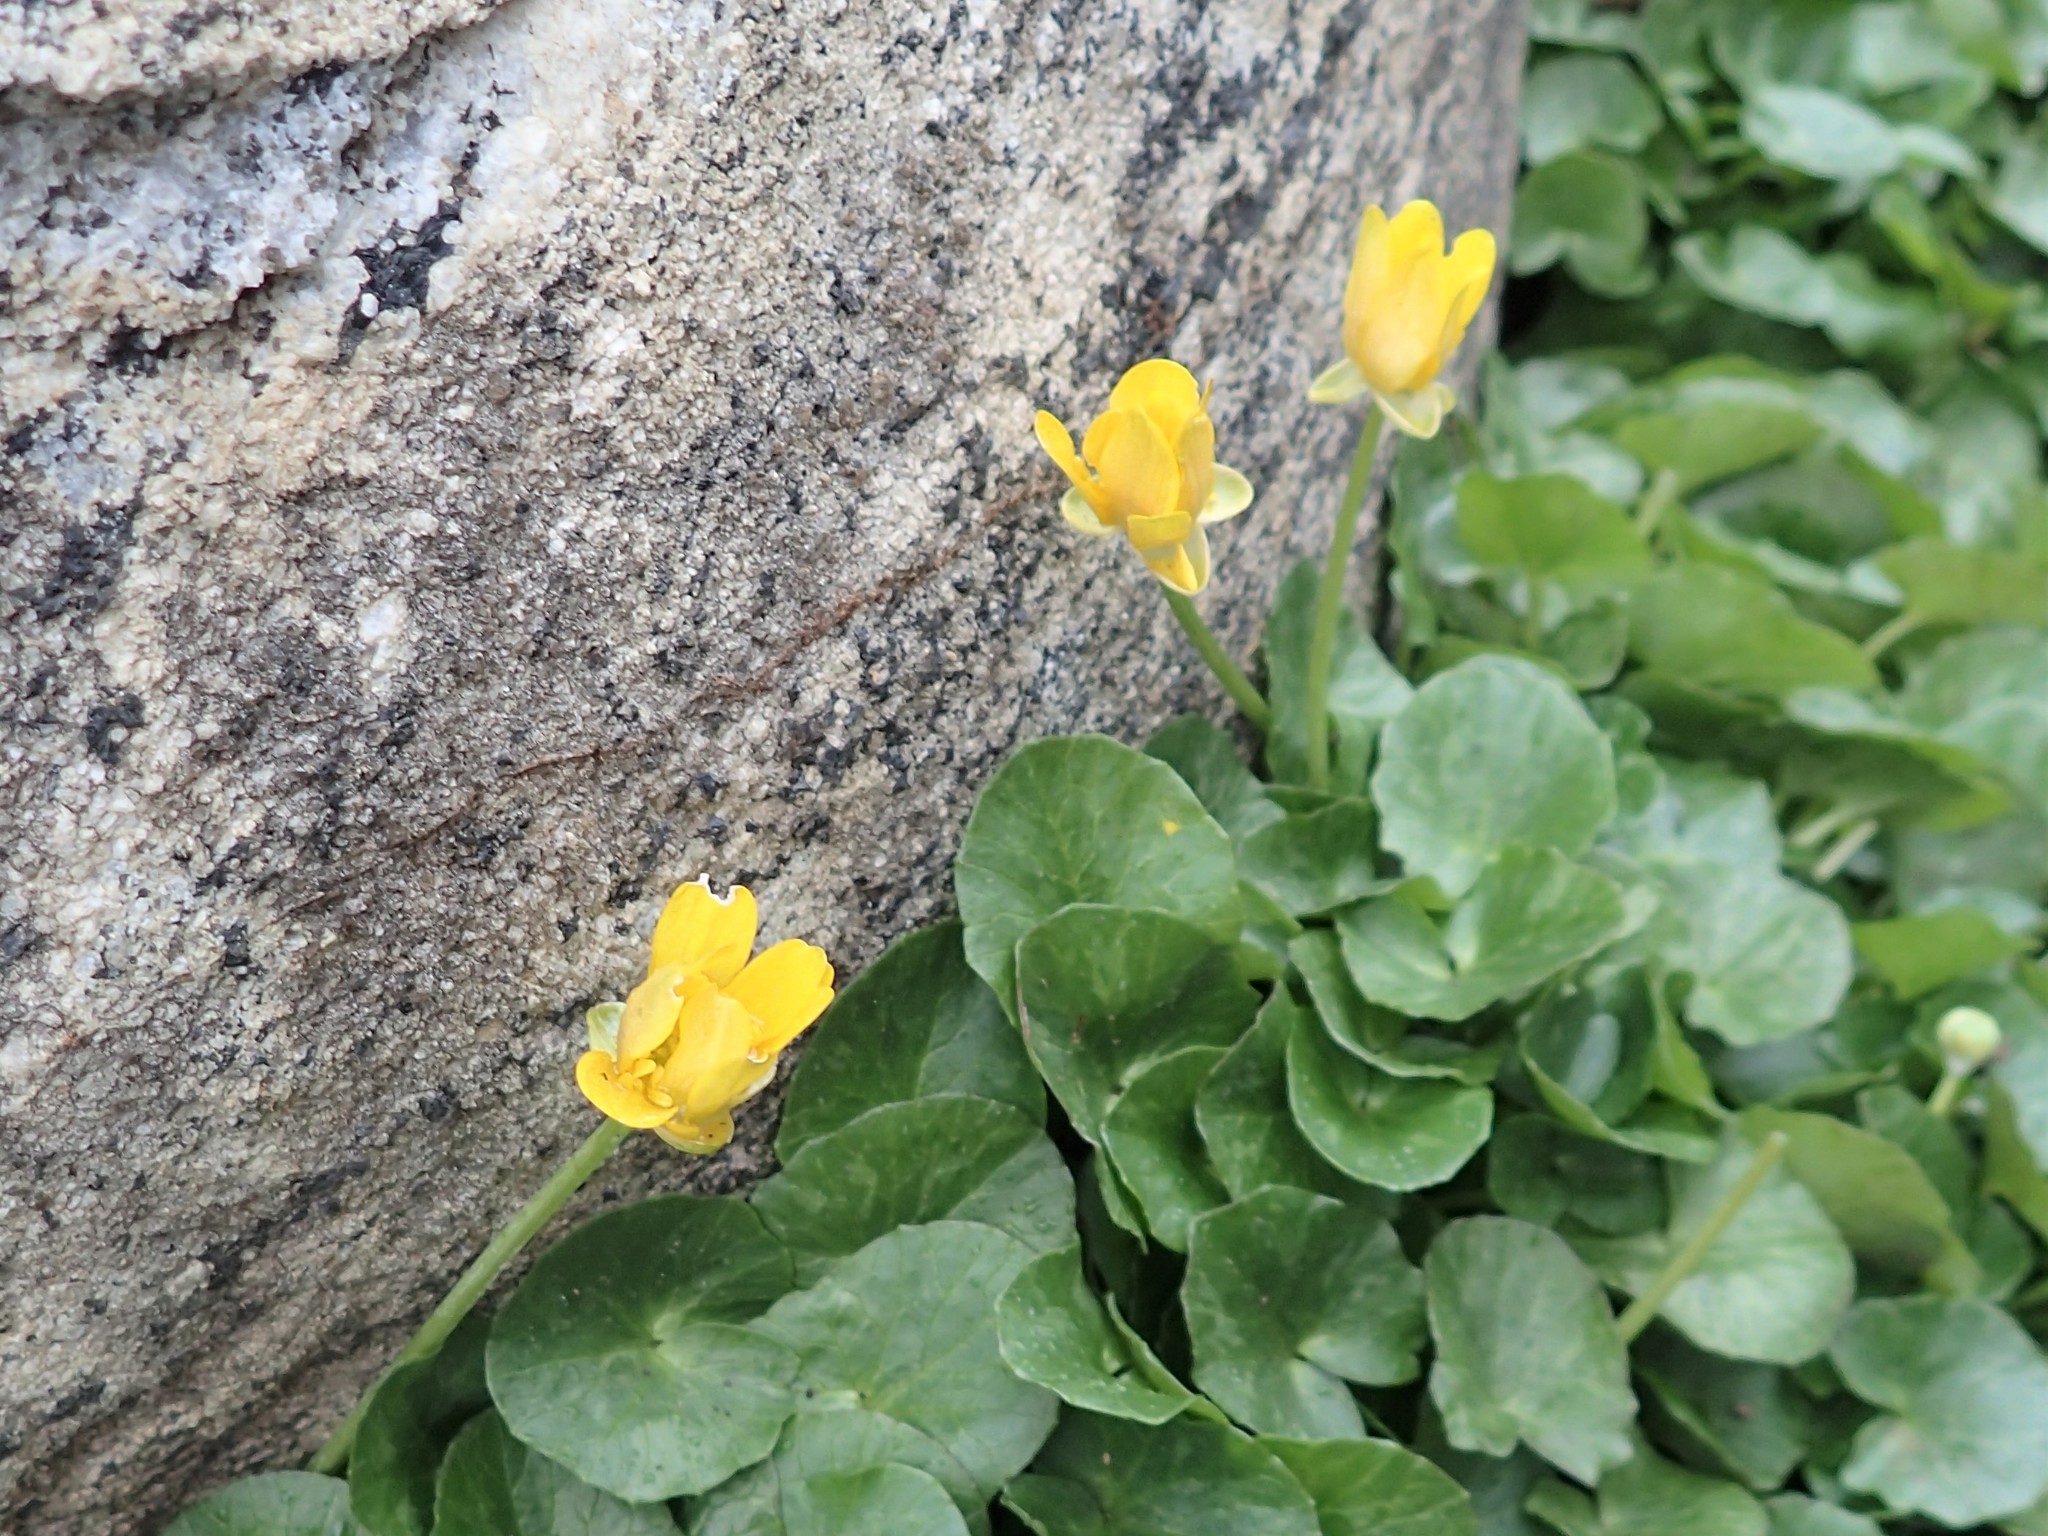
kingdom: Plantae
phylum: Tracheophyta
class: Magnoliopsida
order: Ranunculales
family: Ranunculaceae
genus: Ficaria
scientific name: Ficaria verna
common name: Lesser celandine
